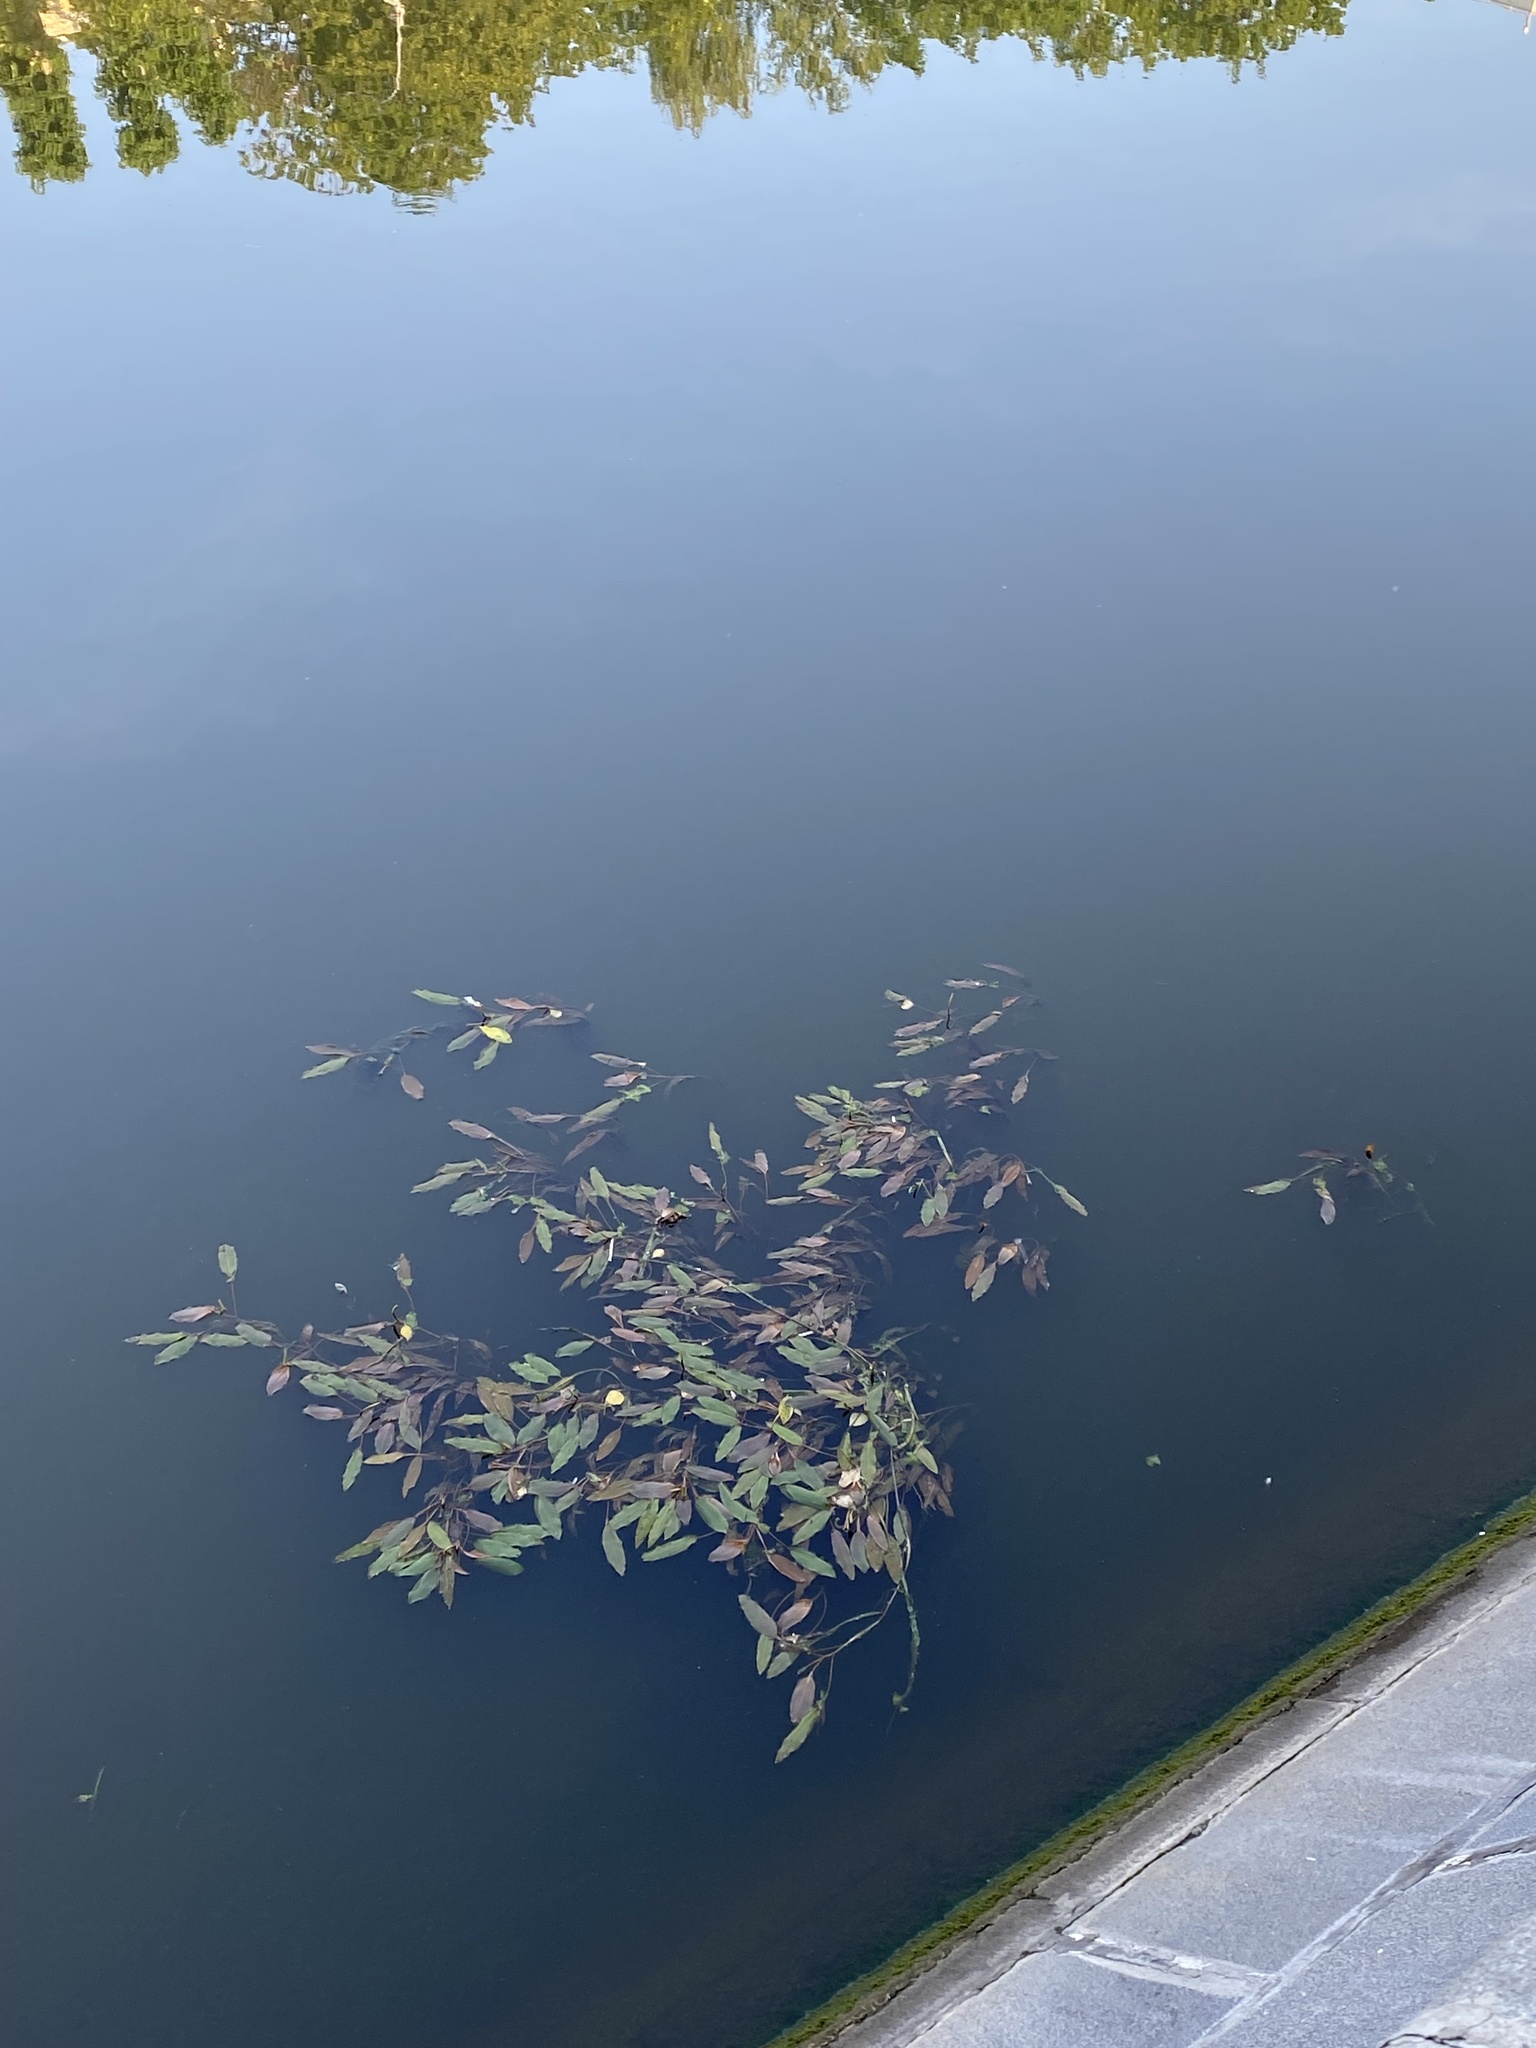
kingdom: Plantae
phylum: Tracheophyta
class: Liliopsida
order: Alismatales
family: Potamogetonaceae
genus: Potamogeton
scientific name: Potamogeton nodosus
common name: Loddon pondweed
